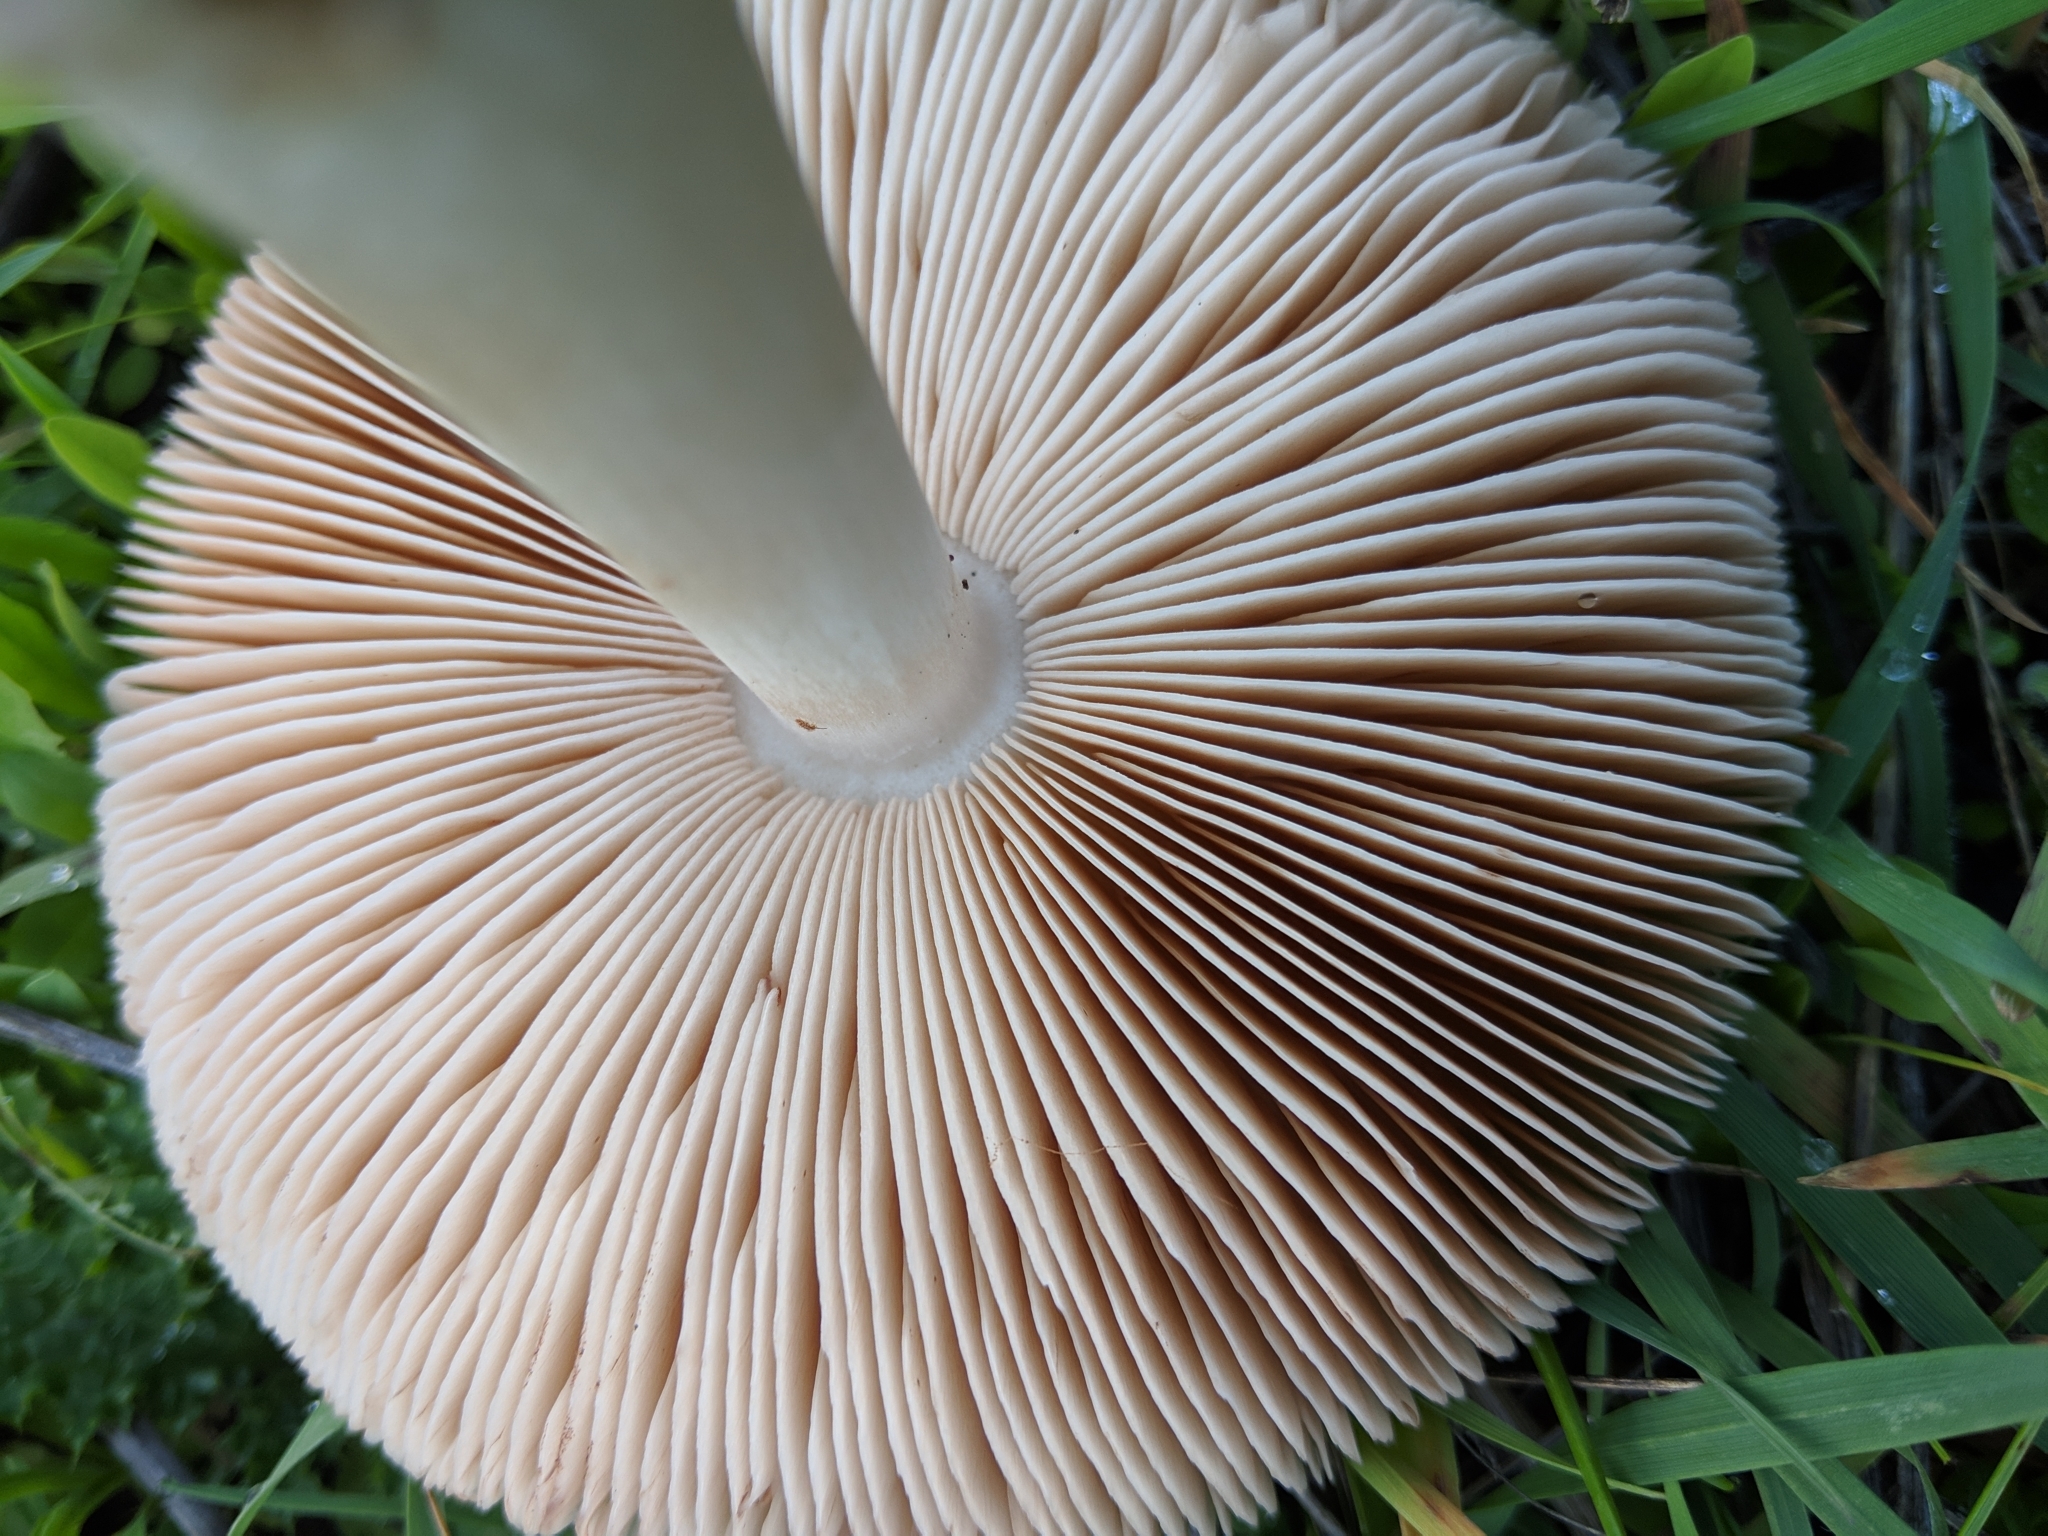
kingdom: Fungi
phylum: Basidiomycota
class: Agaricomycetes
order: Agaricales
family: Pluteaceae
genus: Volvopluteus
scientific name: Volvopluteus gloiocephalus
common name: Stubble rosegill
